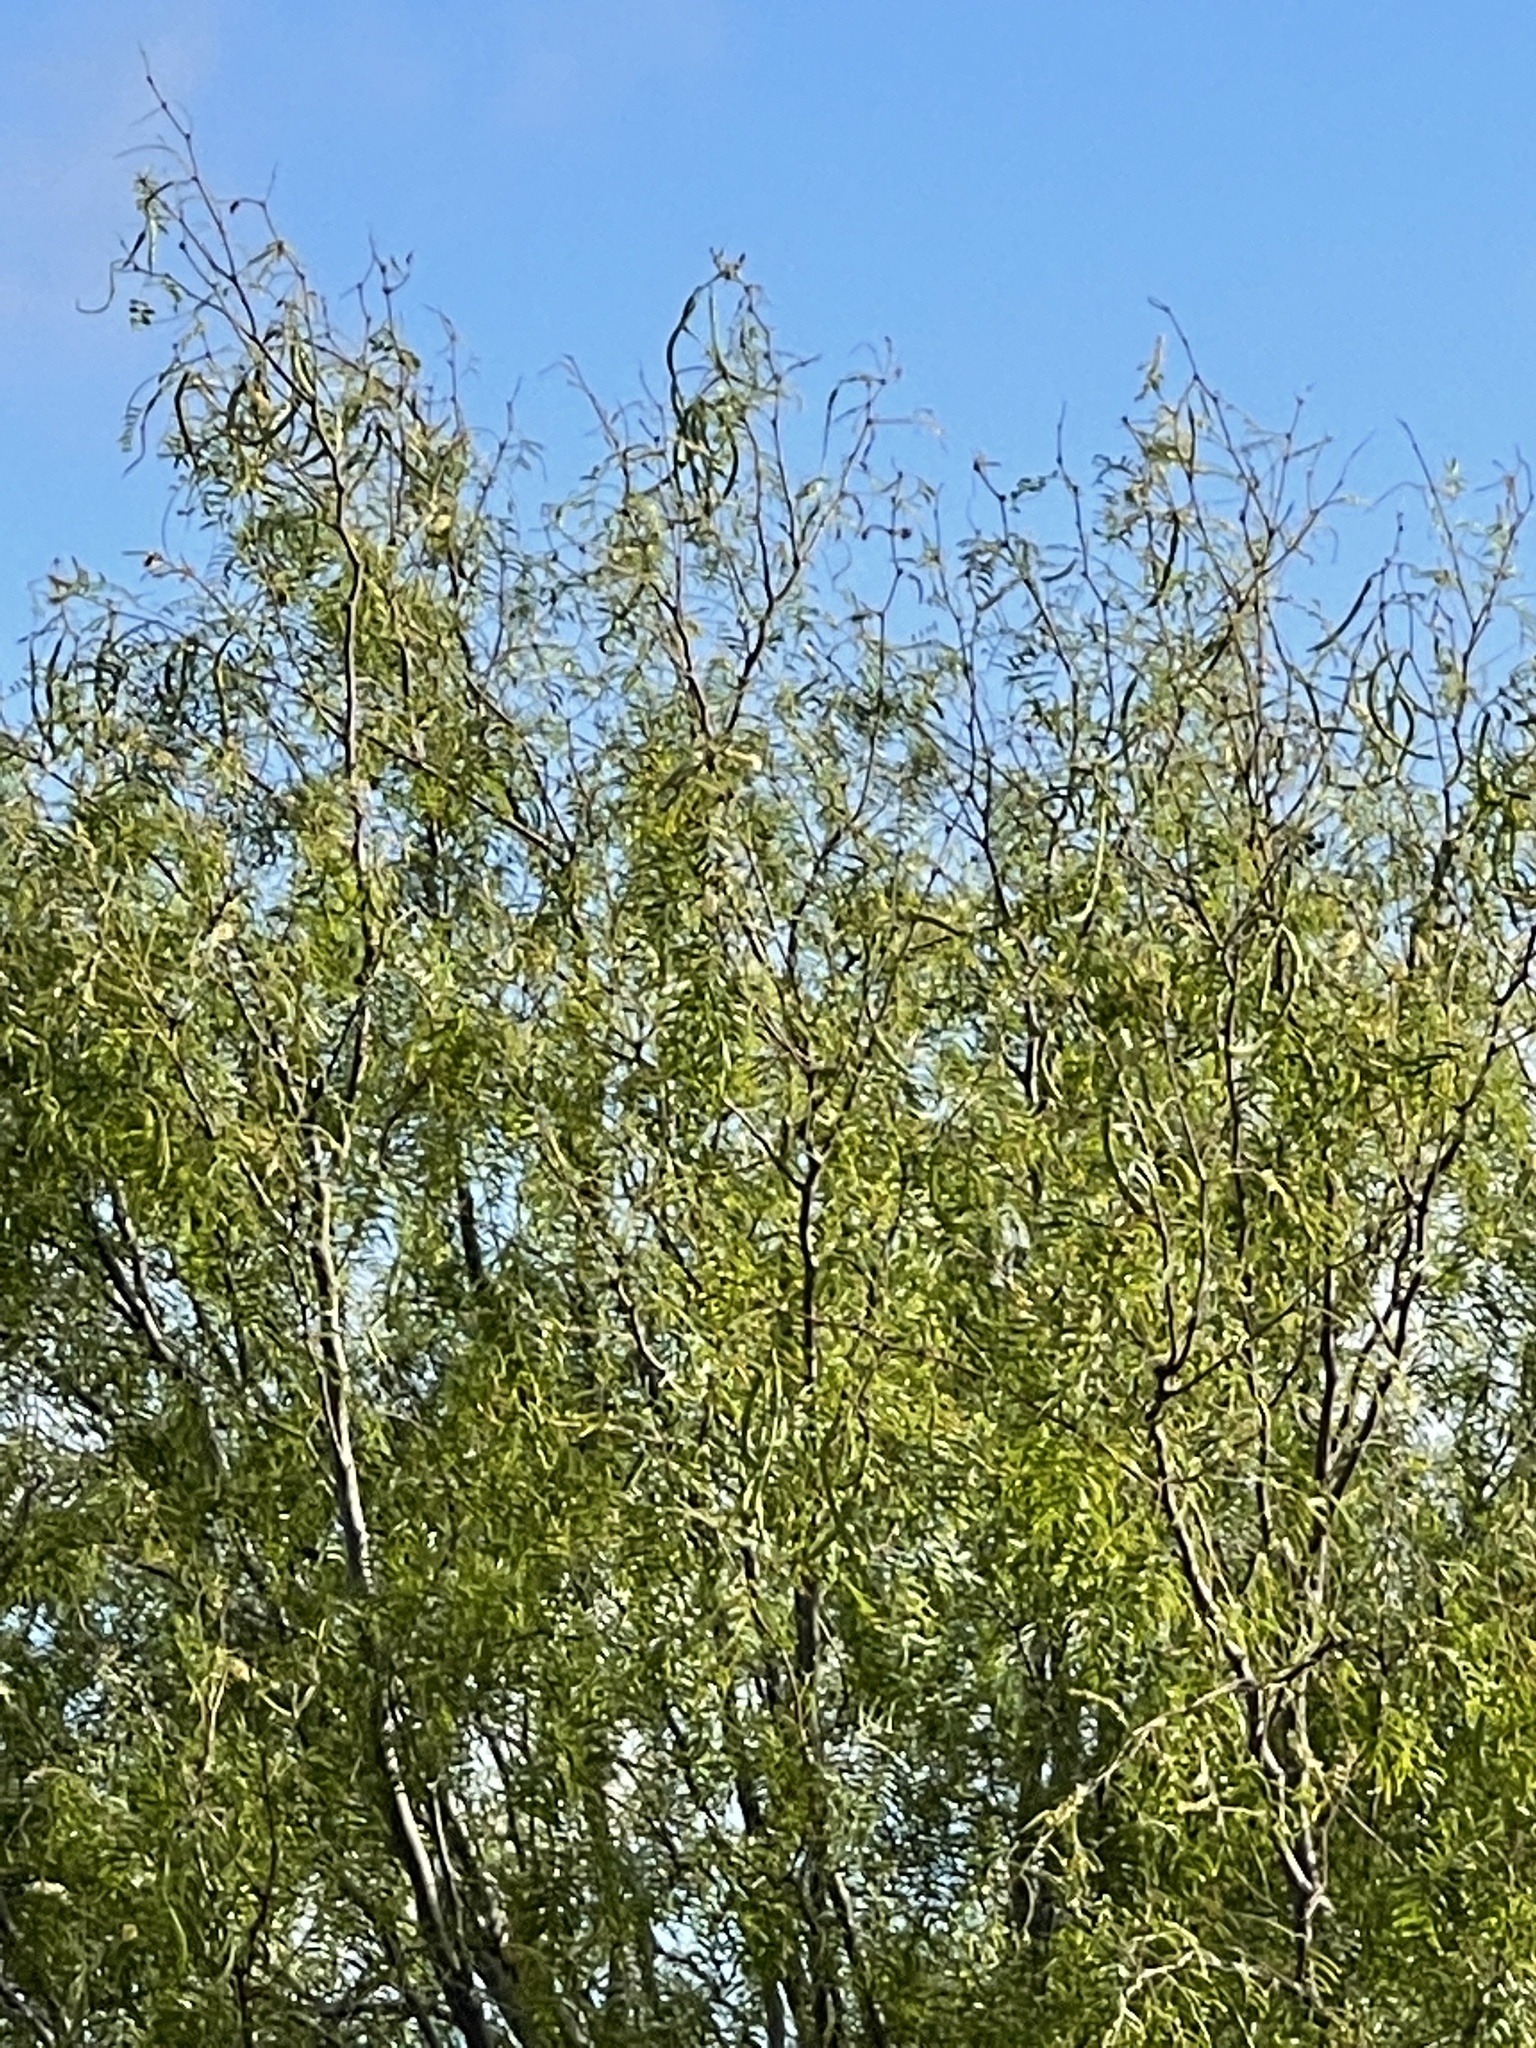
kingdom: Plantae
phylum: Tracheophyta
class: Magnoliopsida
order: Fabales
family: Fabaceae
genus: Prosopis
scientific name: Prosopis glandulosa
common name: Honey mesquite
